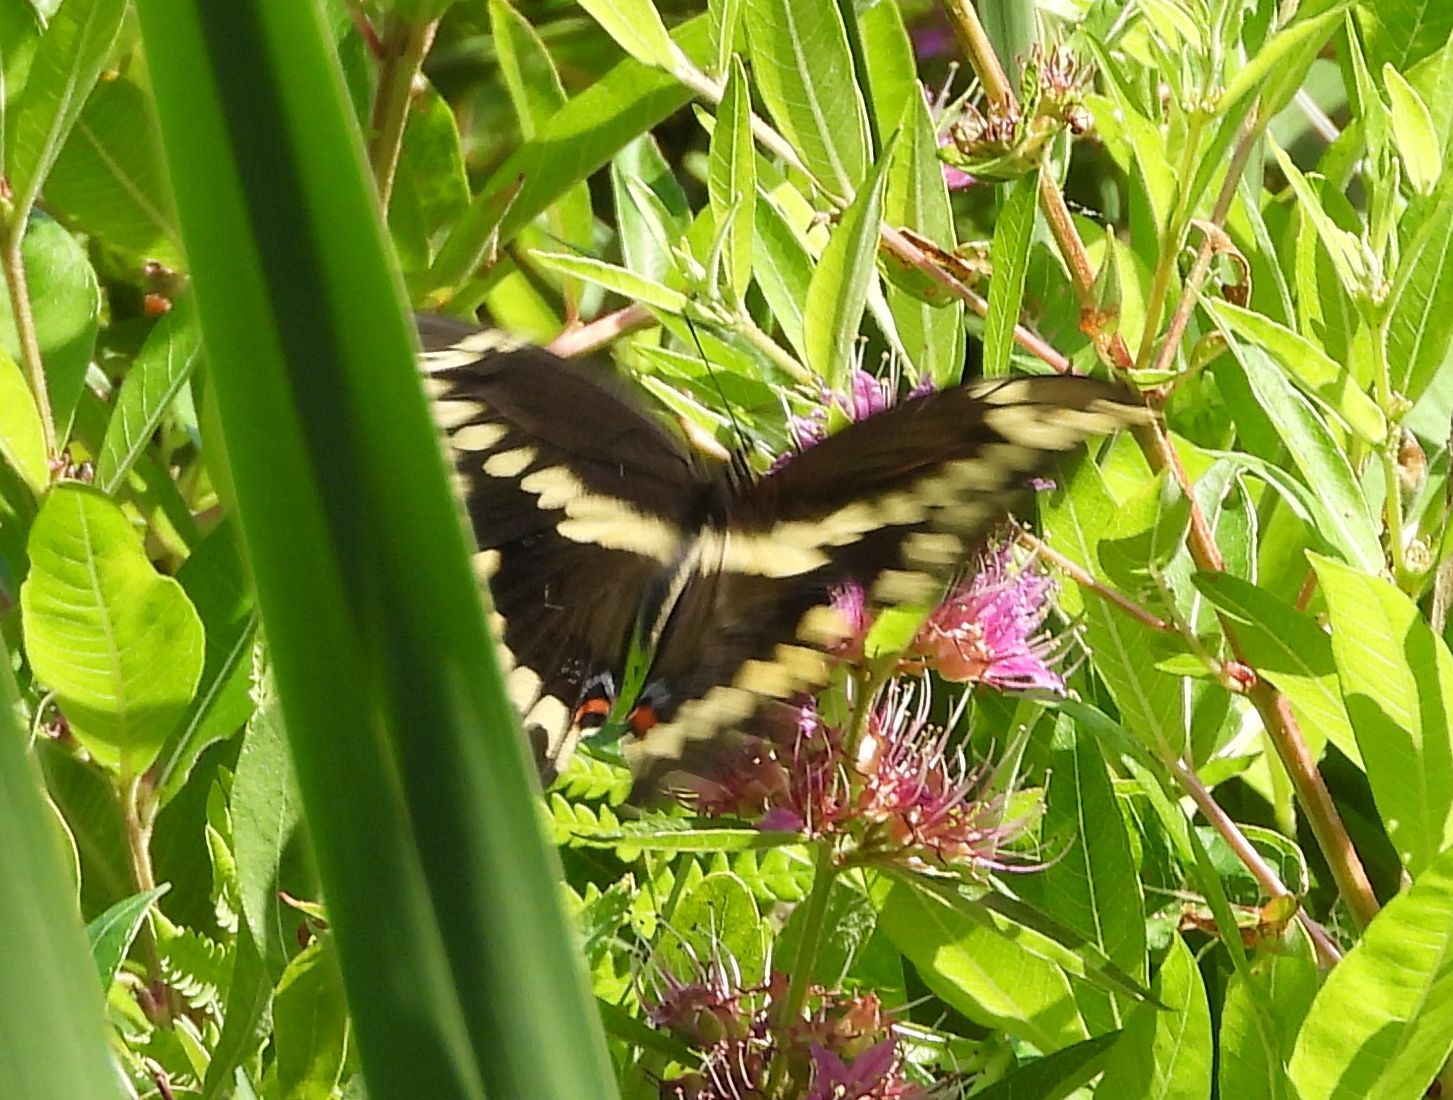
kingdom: Animalia
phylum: Arthropoda
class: Insecta
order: Lepidoptera
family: Papilionidae
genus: Papilio
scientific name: Papilio cresphontes
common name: Giant swallowtail
